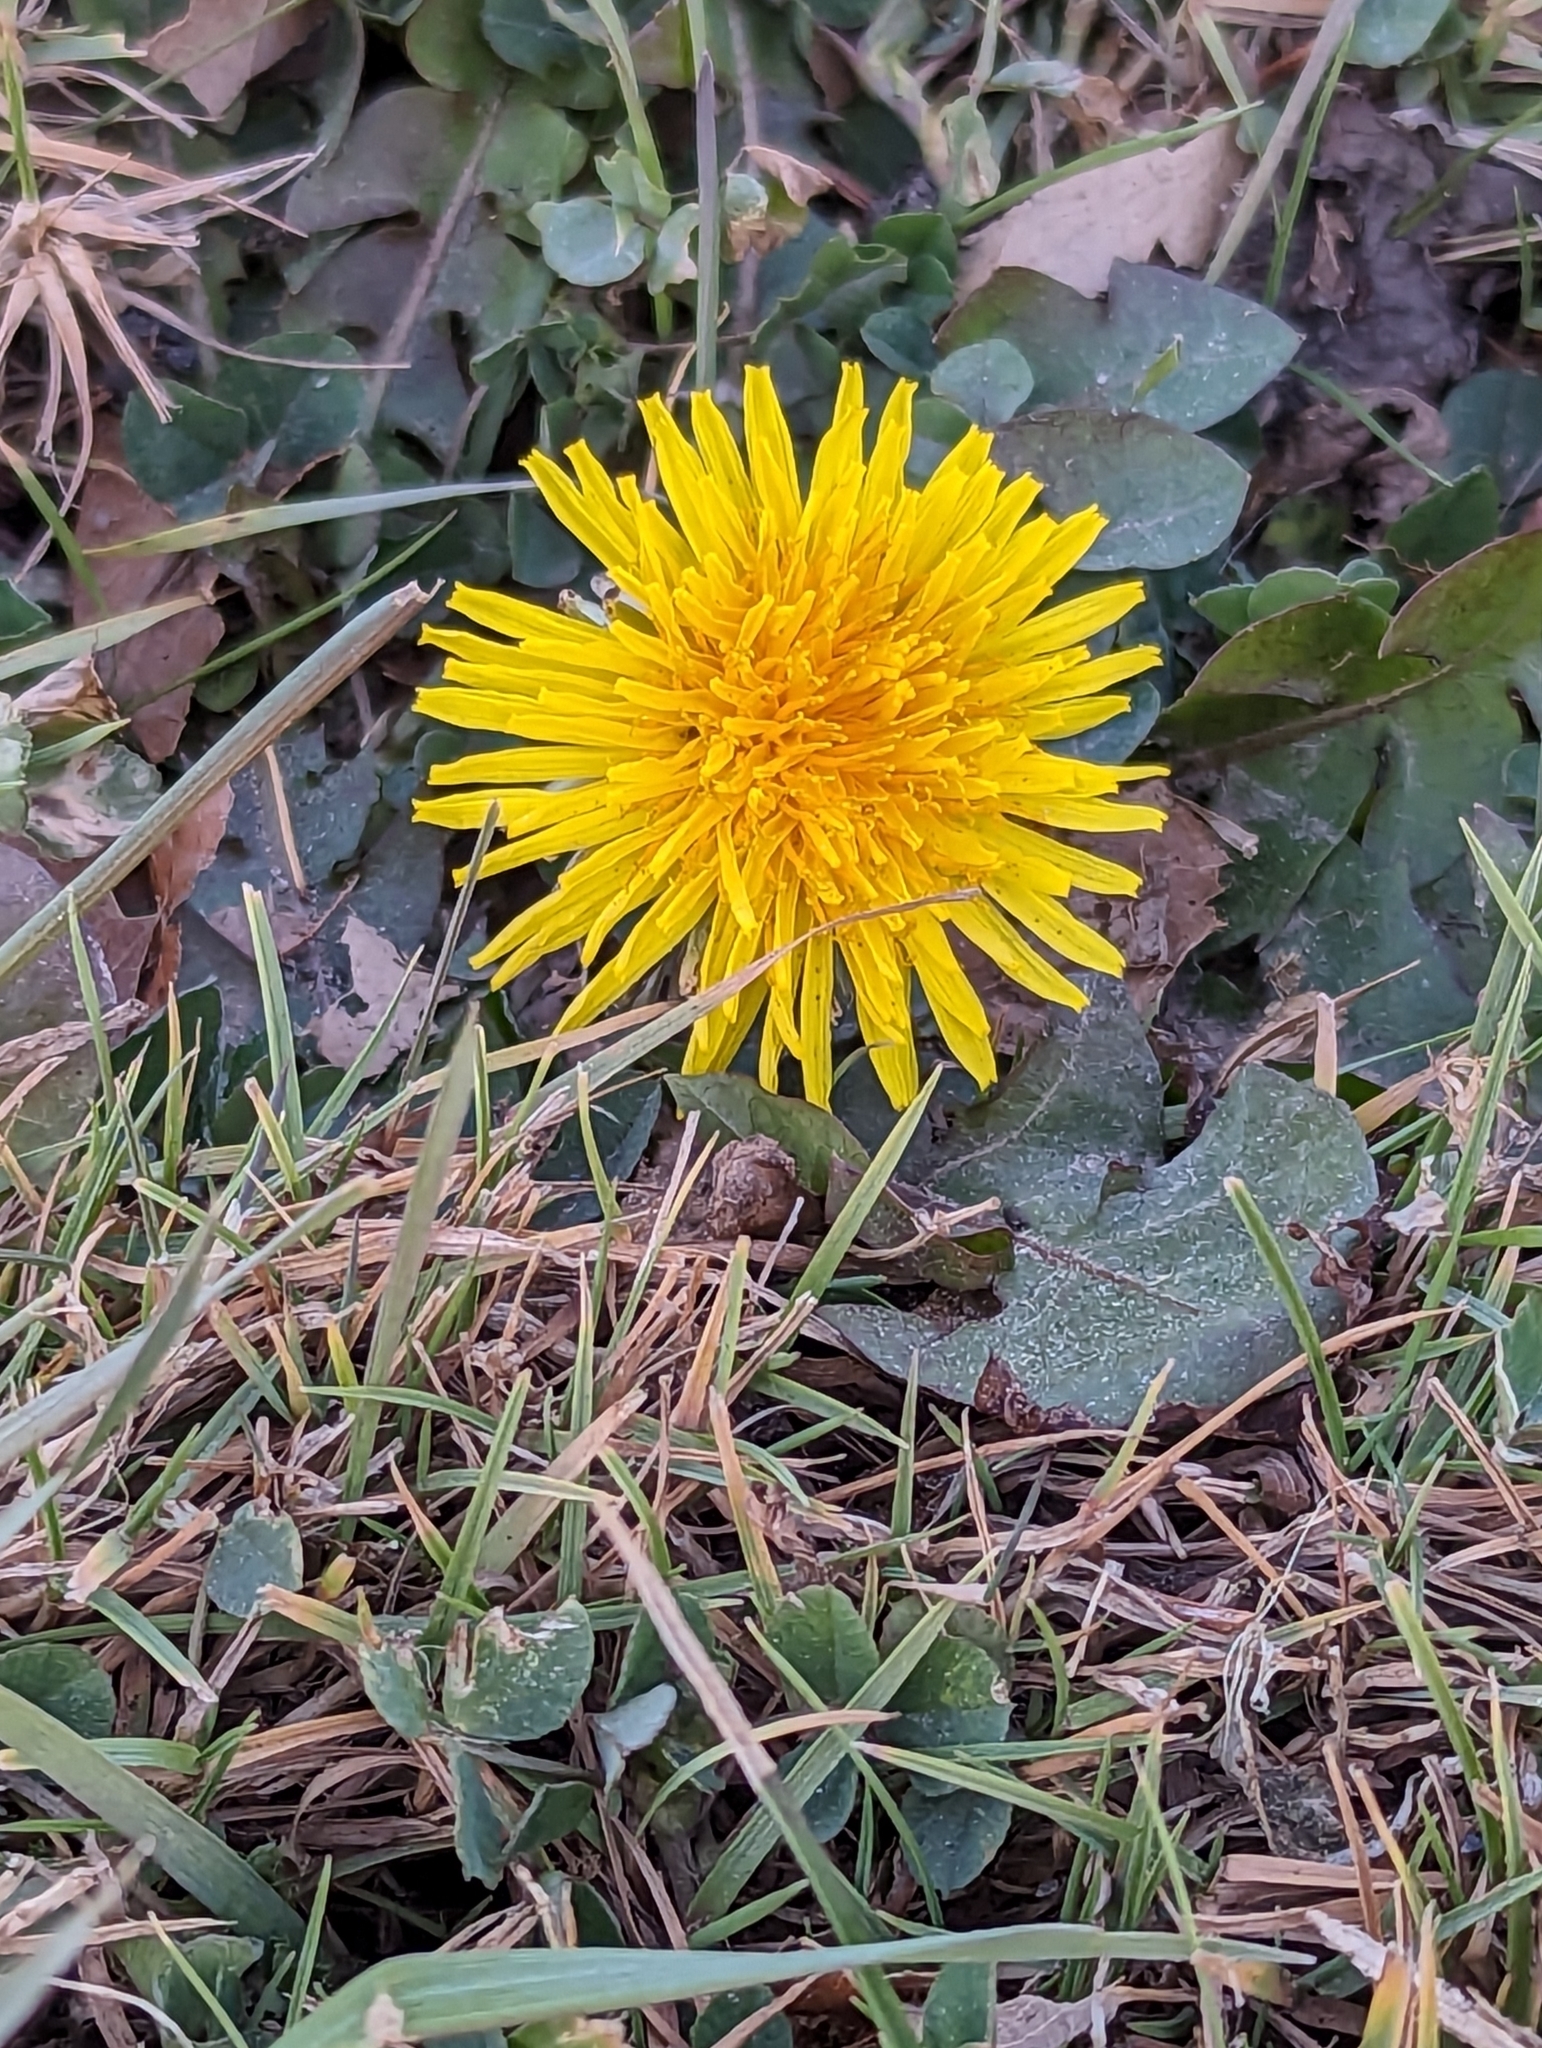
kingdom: Plantae
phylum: Tracheophyta
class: Magnoliopsida
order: Asterales
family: Asteraceae
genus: Taraxacum
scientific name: Taraxacum officinale
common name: Common dandelion
